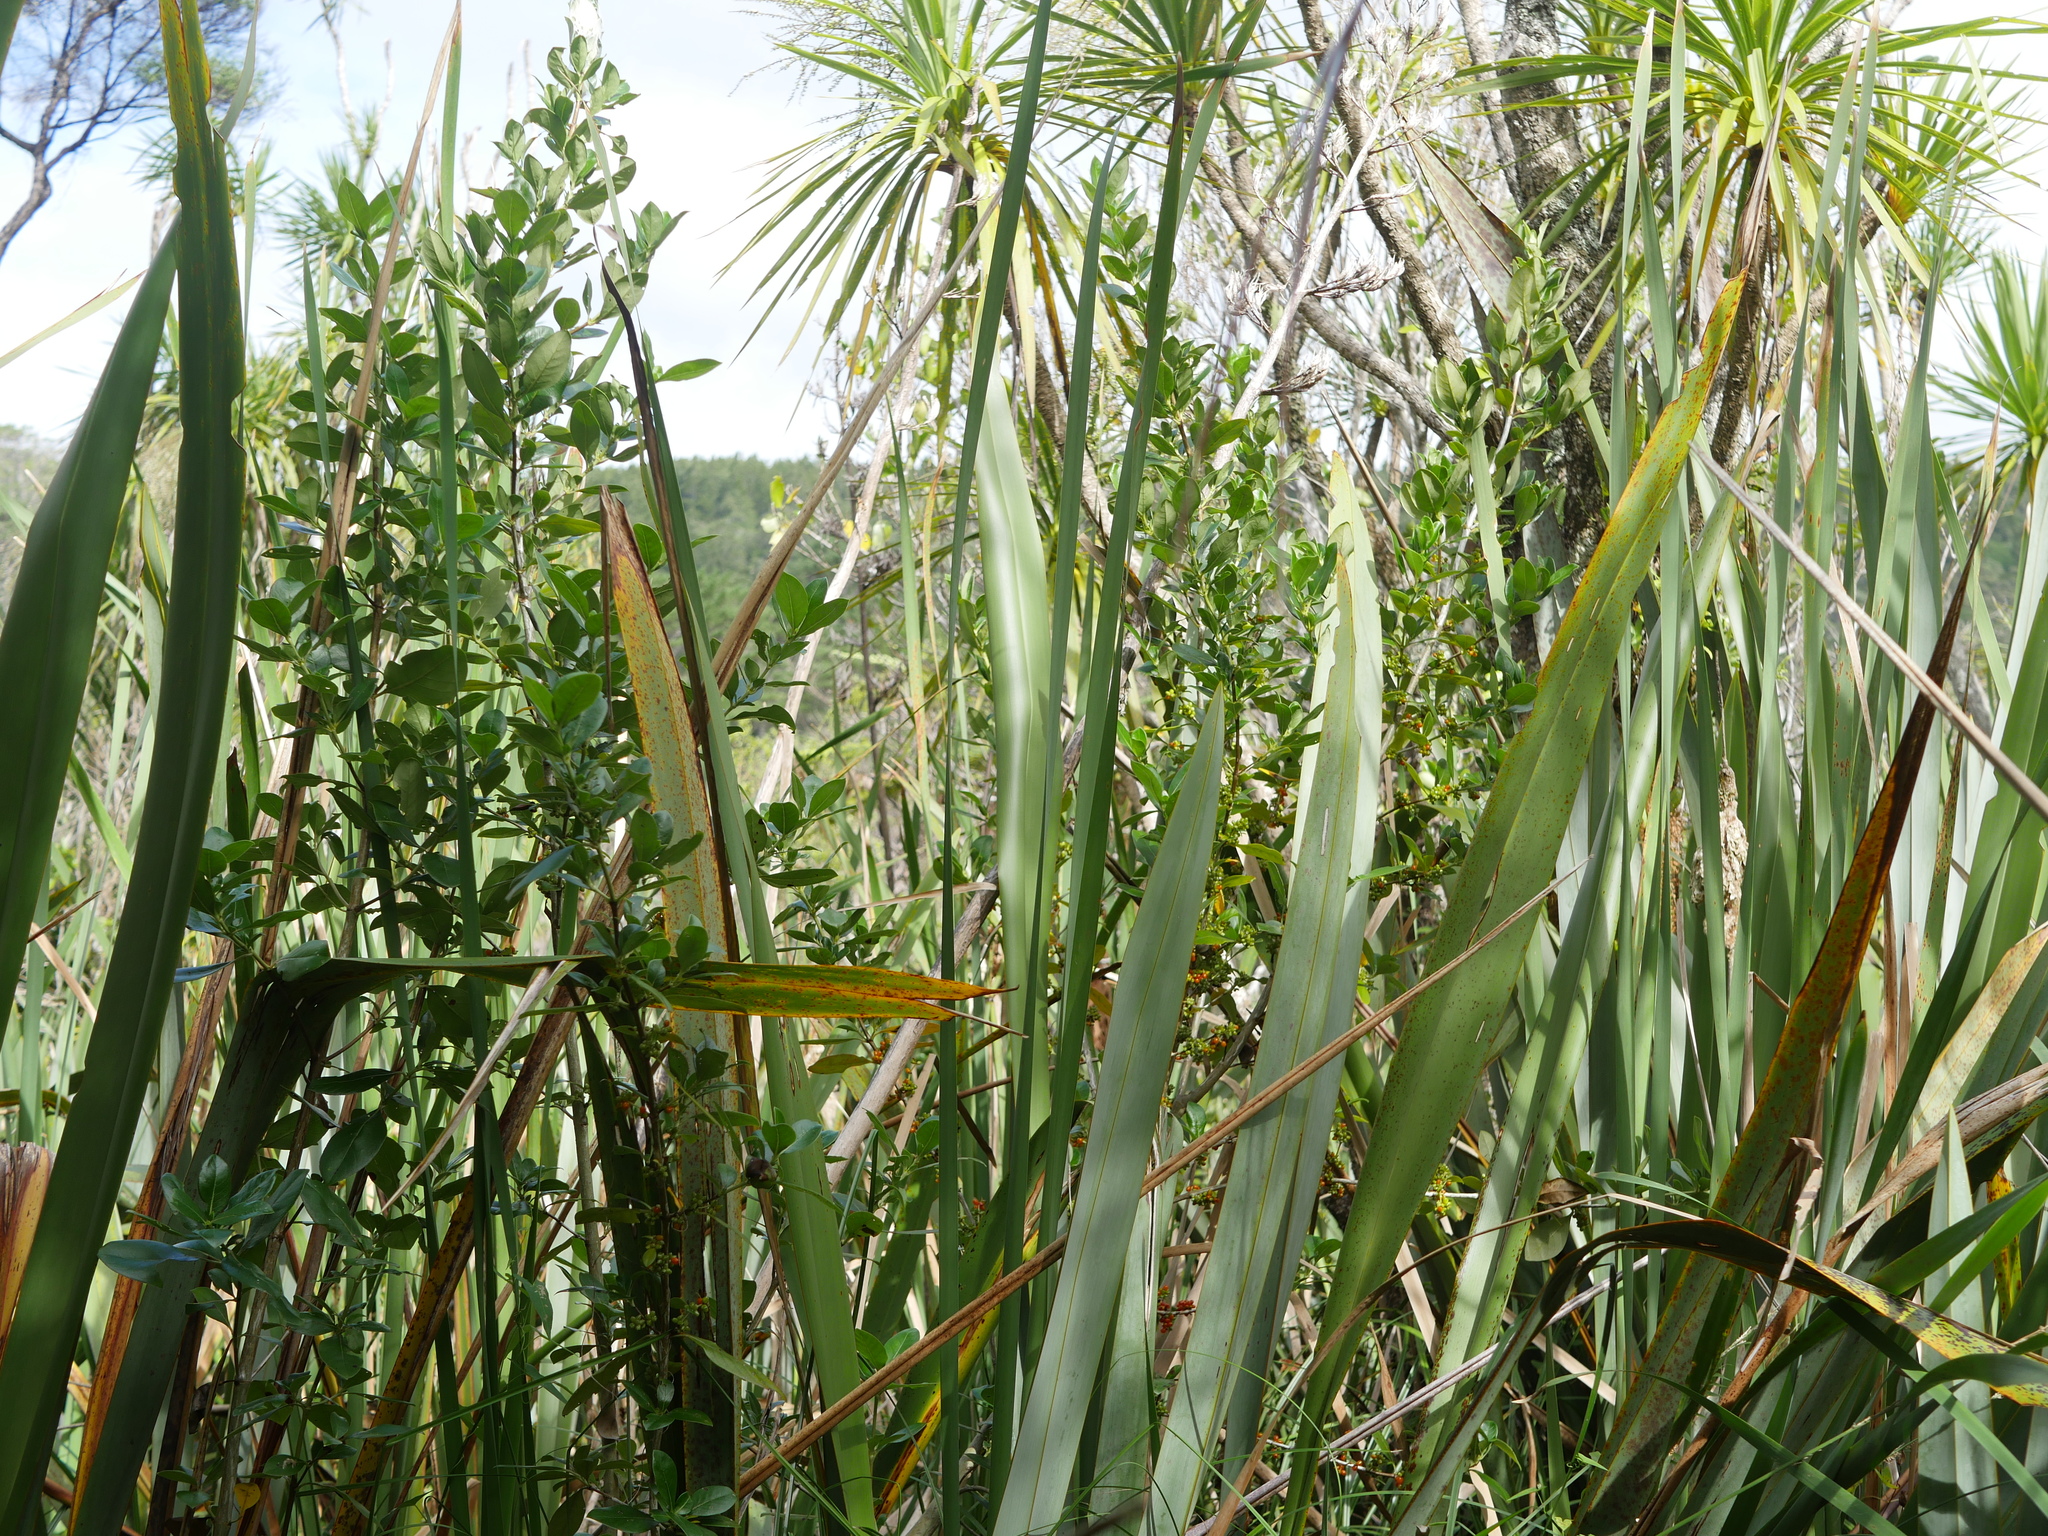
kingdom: Plantae
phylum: Tracheophyta
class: Magnoliopsida
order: Gentianales
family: Rubiaceae
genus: Coprosma
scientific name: Coprosma robusta
